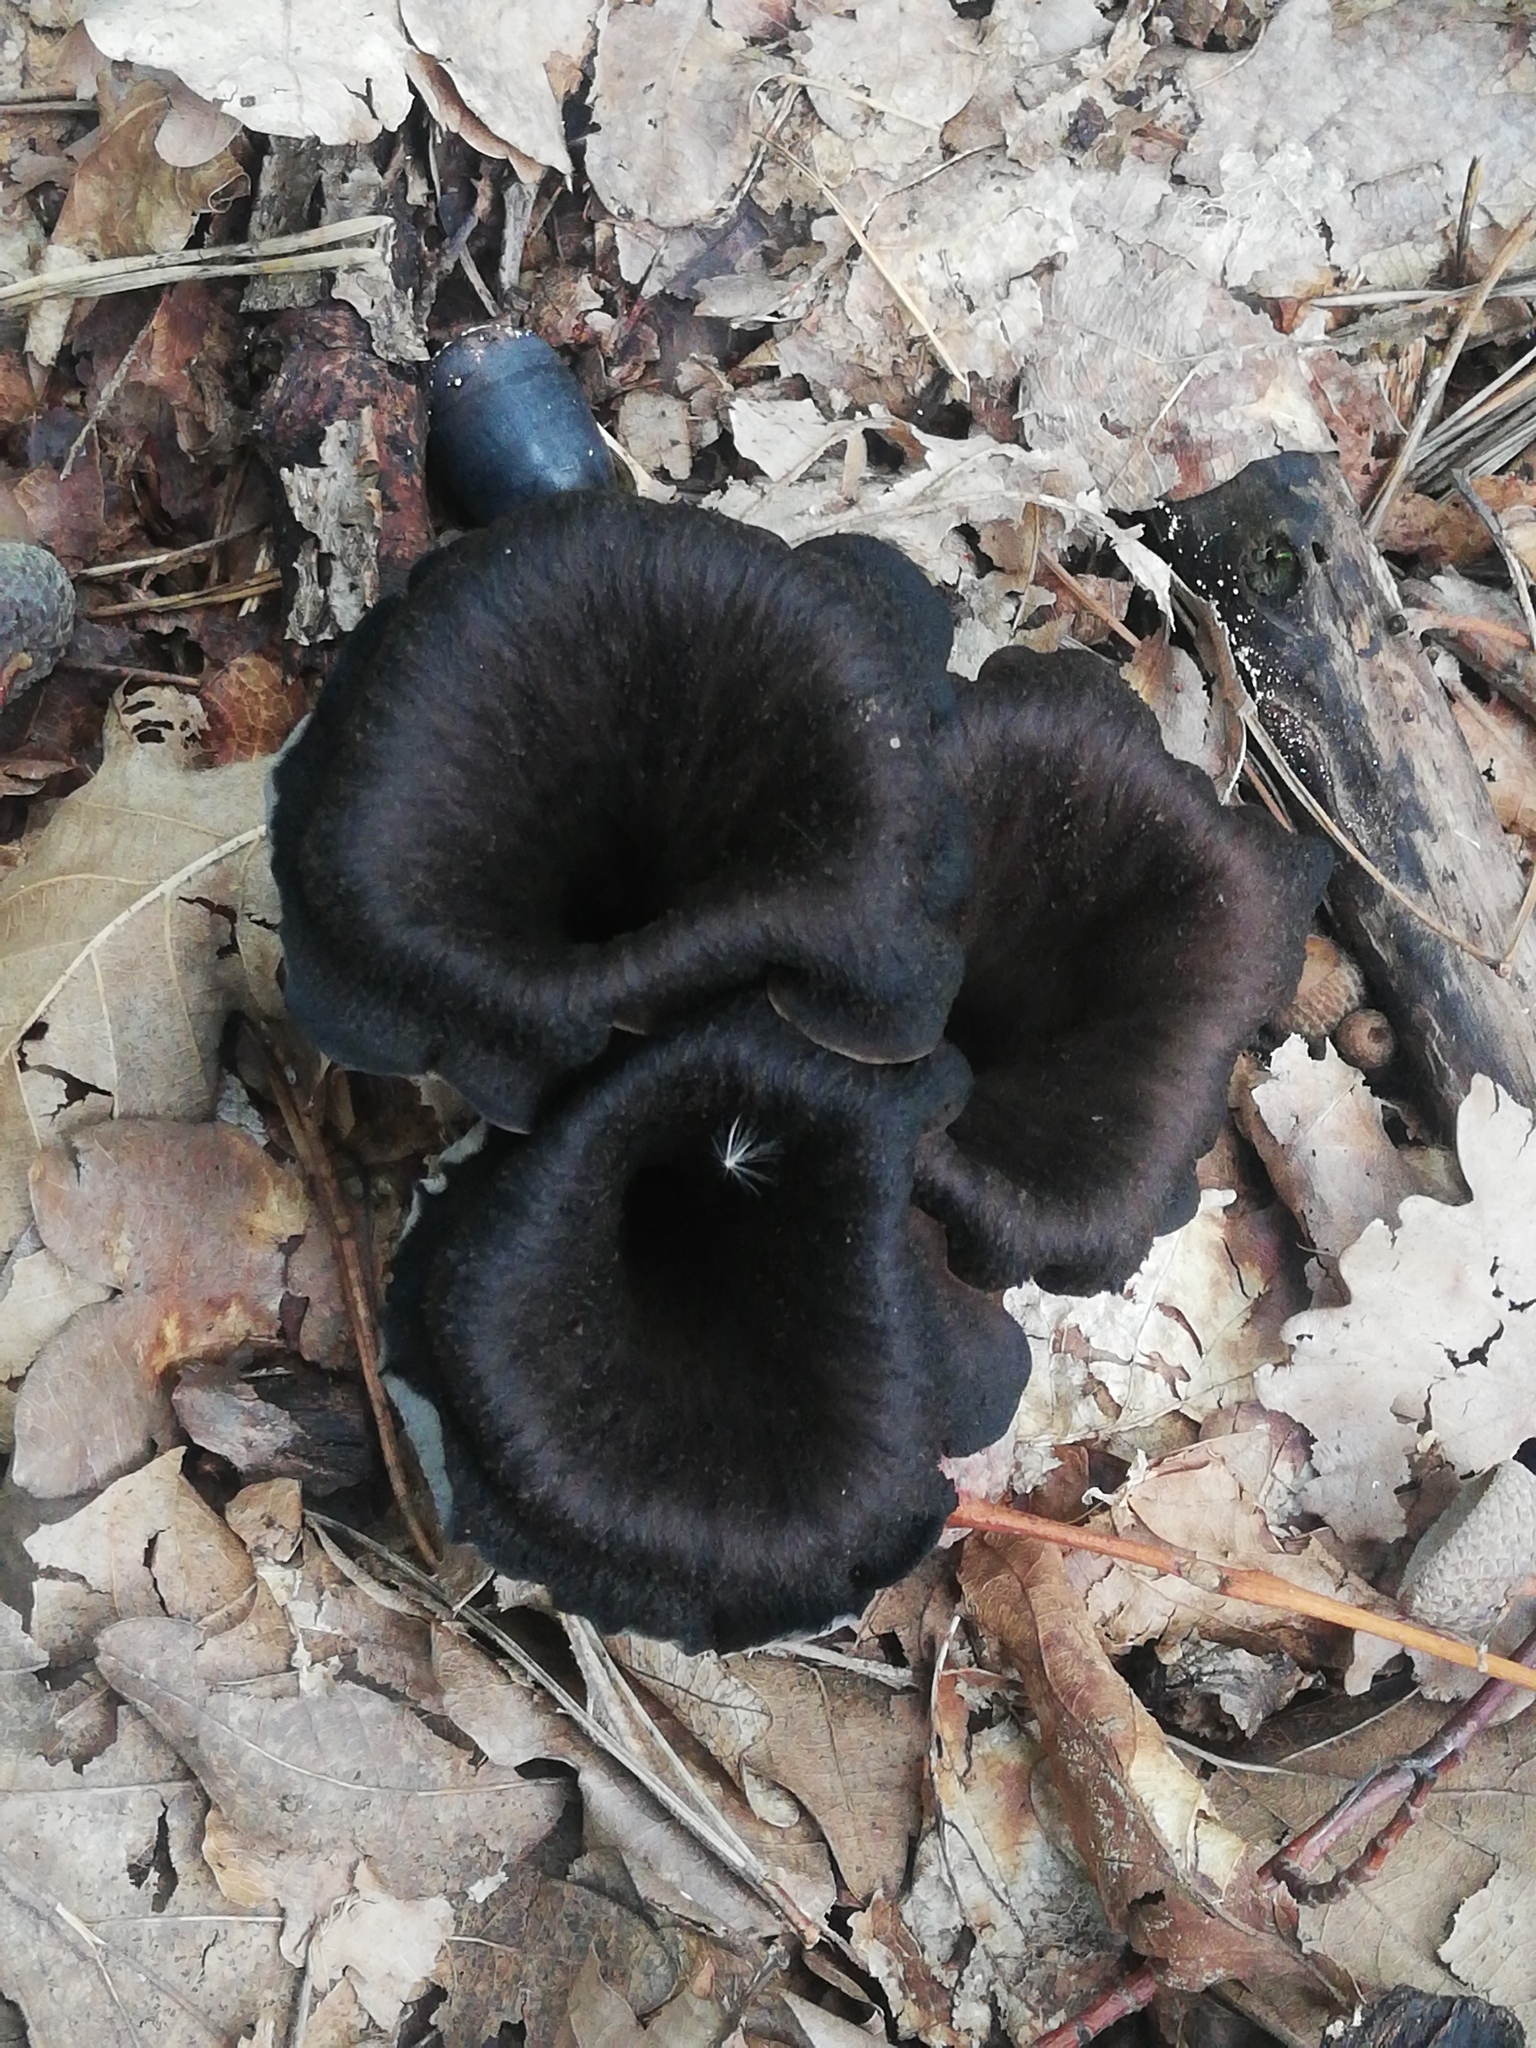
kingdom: Fungi
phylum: Basidiomycota
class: Agaricomycetes
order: Cantharellales
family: Hydnaceae
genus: Craterellus
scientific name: Craterellus cornucopioides
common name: Horn of plenty
